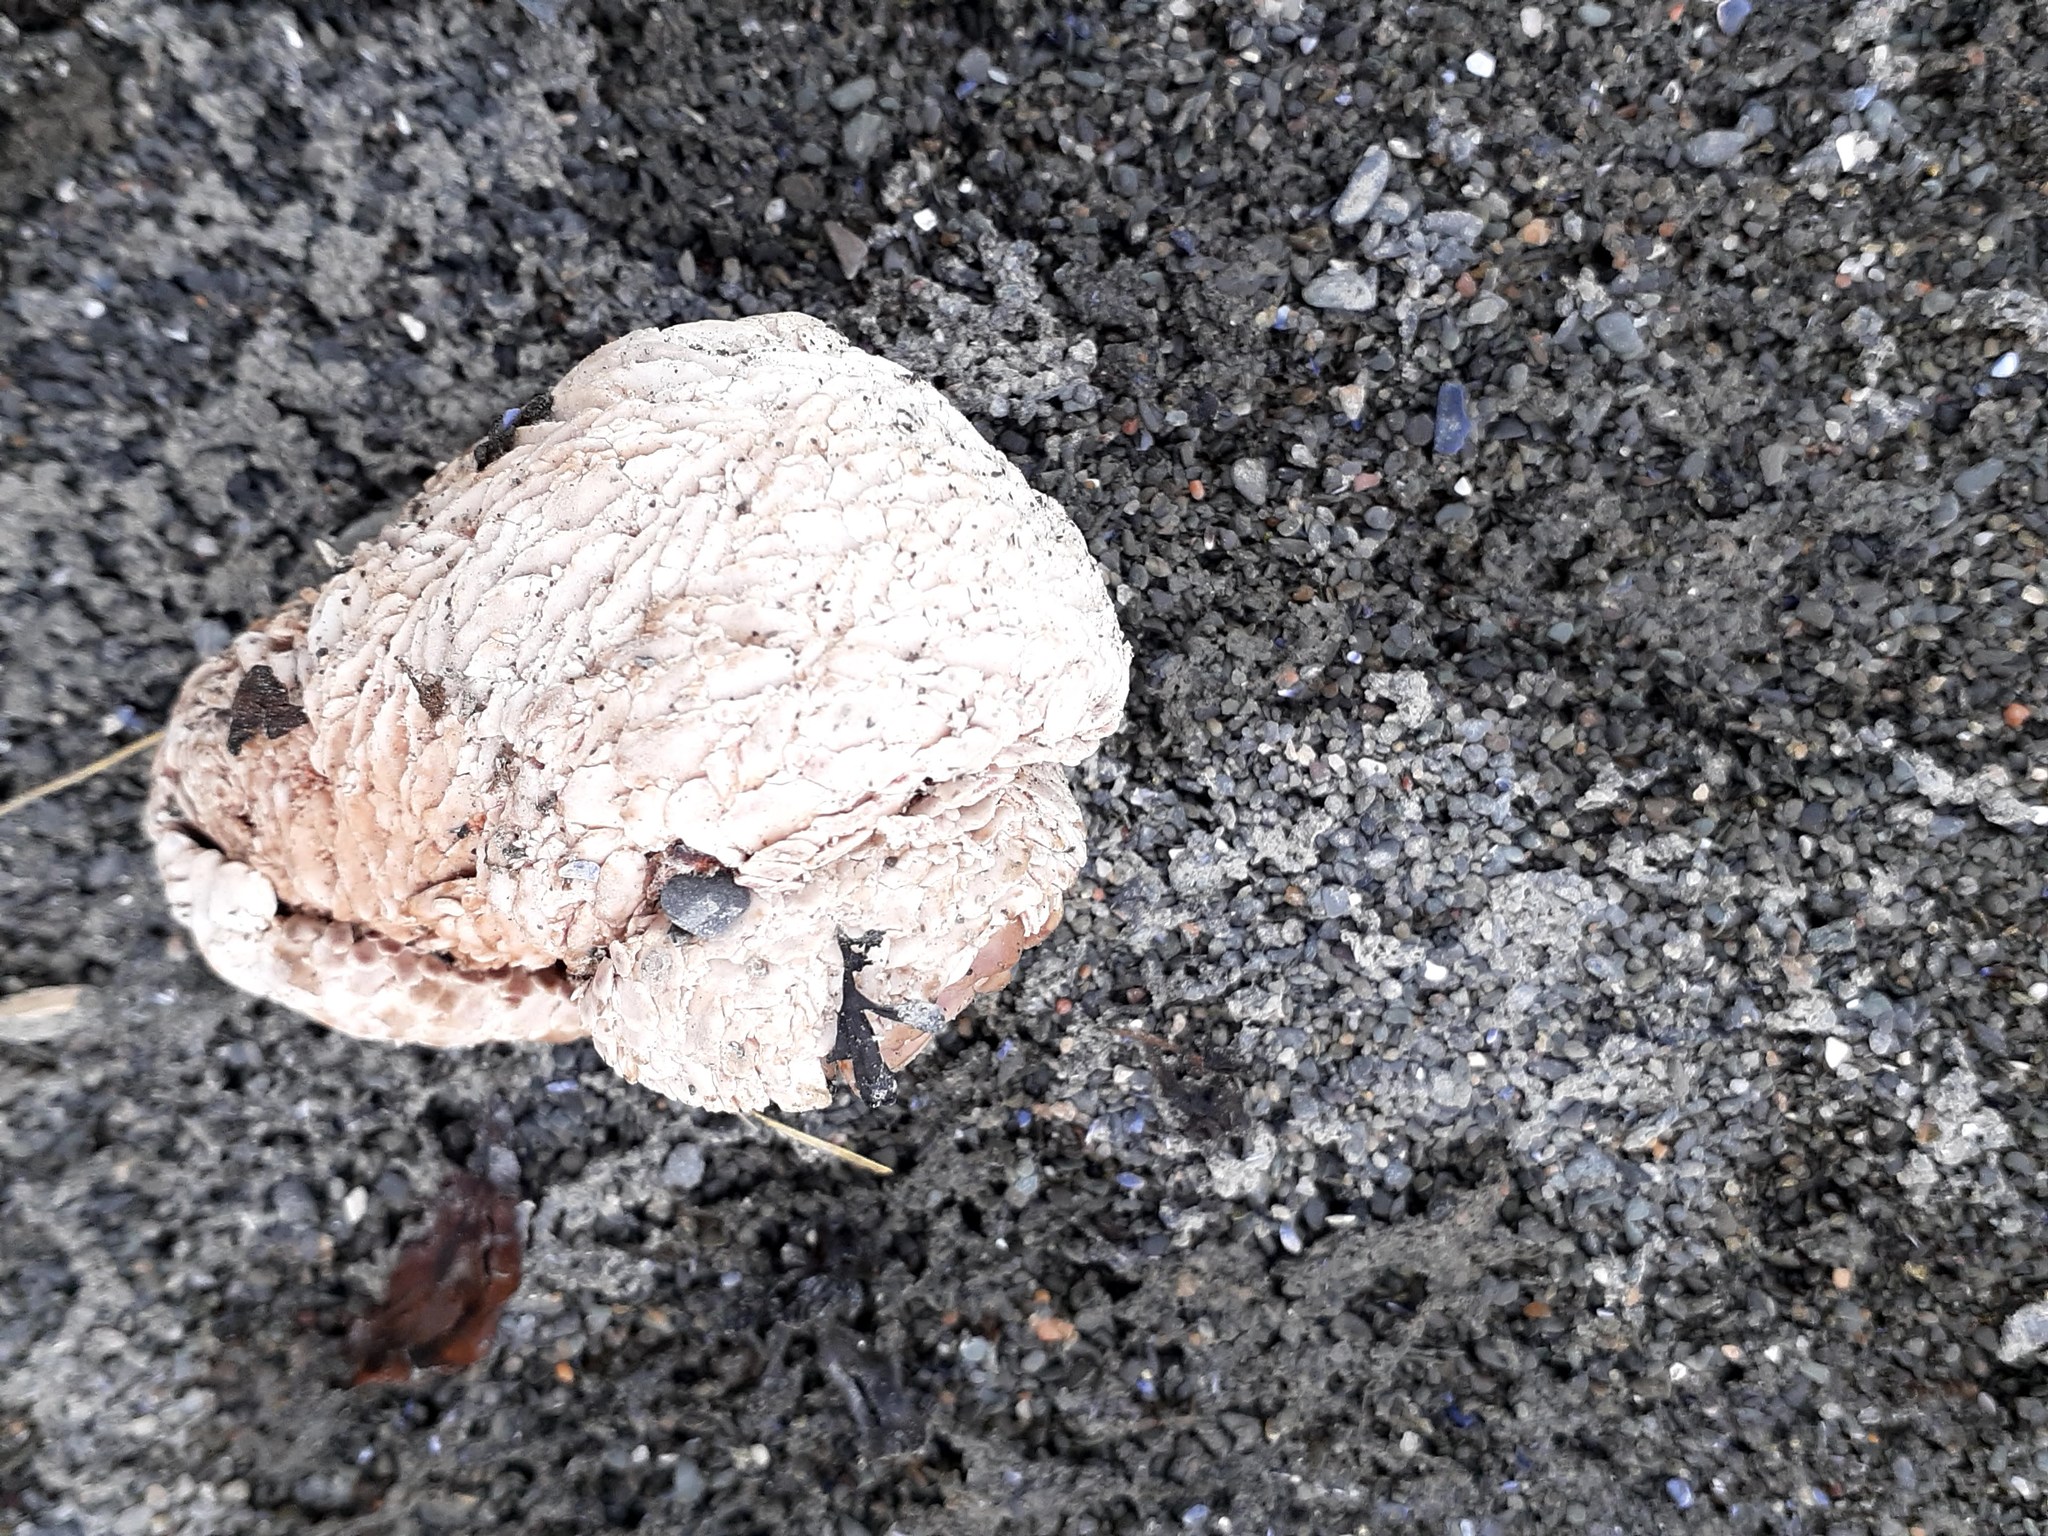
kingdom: Animalia
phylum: Echinodermata
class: Holothuroidea
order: Dendrochirotida
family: Psolidae
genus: Psolus
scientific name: Psolus fabricii
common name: Scarlet psolus
